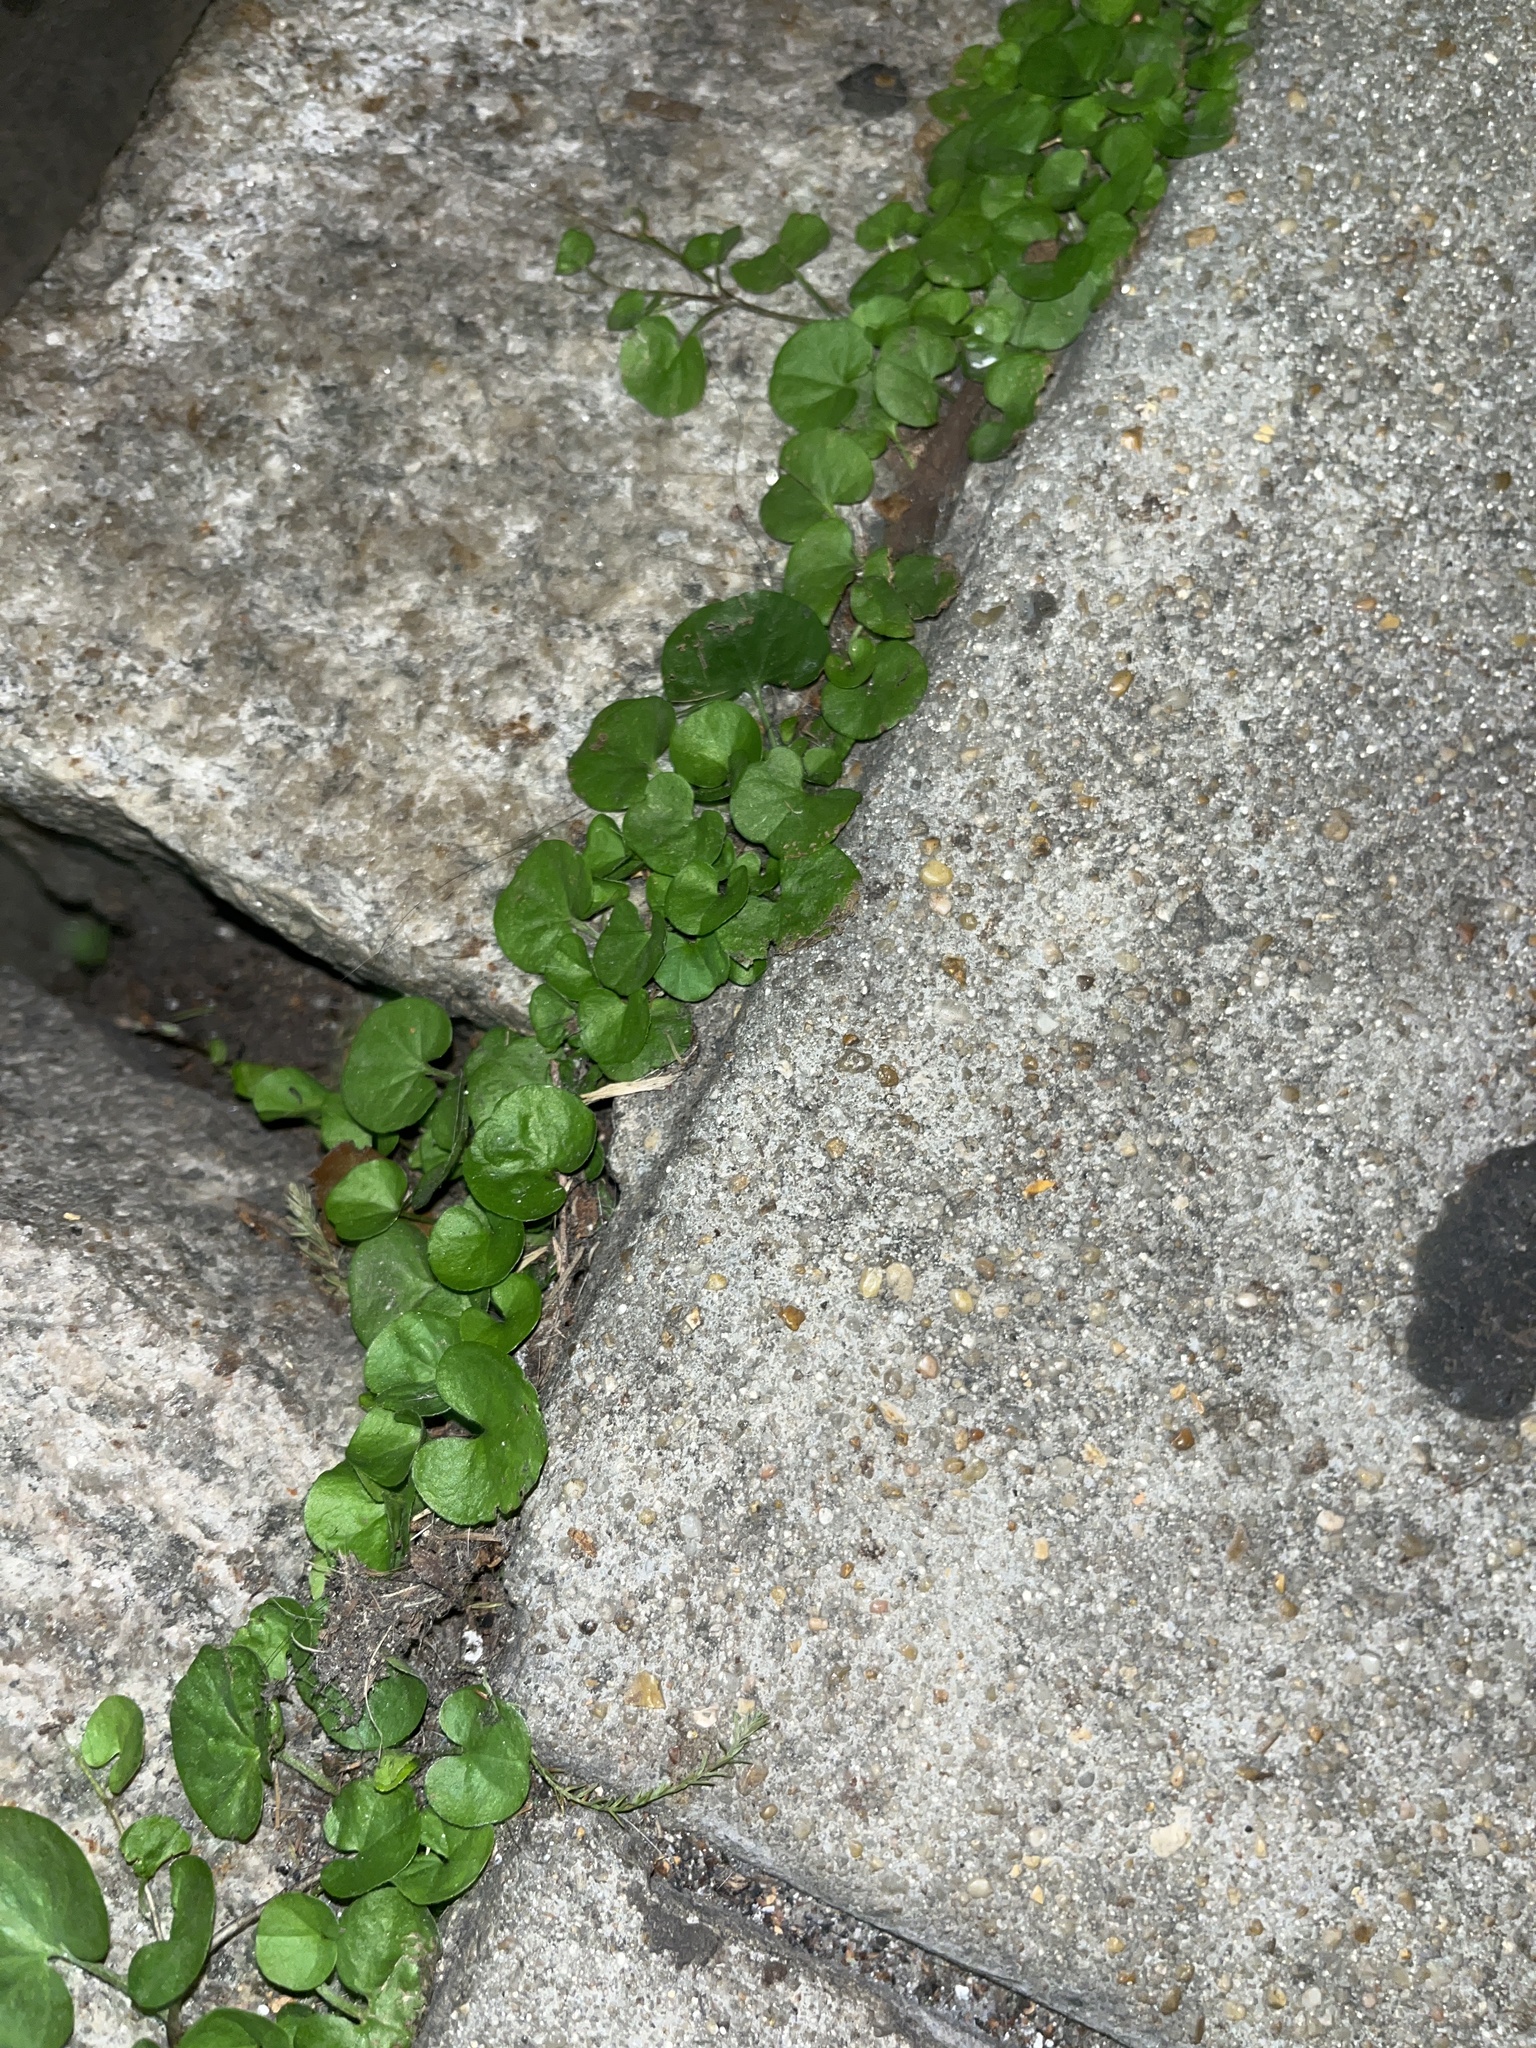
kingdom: Plantae
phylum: Tracheophyta
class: Magnoliopsida
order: Solanales
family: Convolvulaceae
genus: Dichondra
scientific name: Dichondra carolinensis
